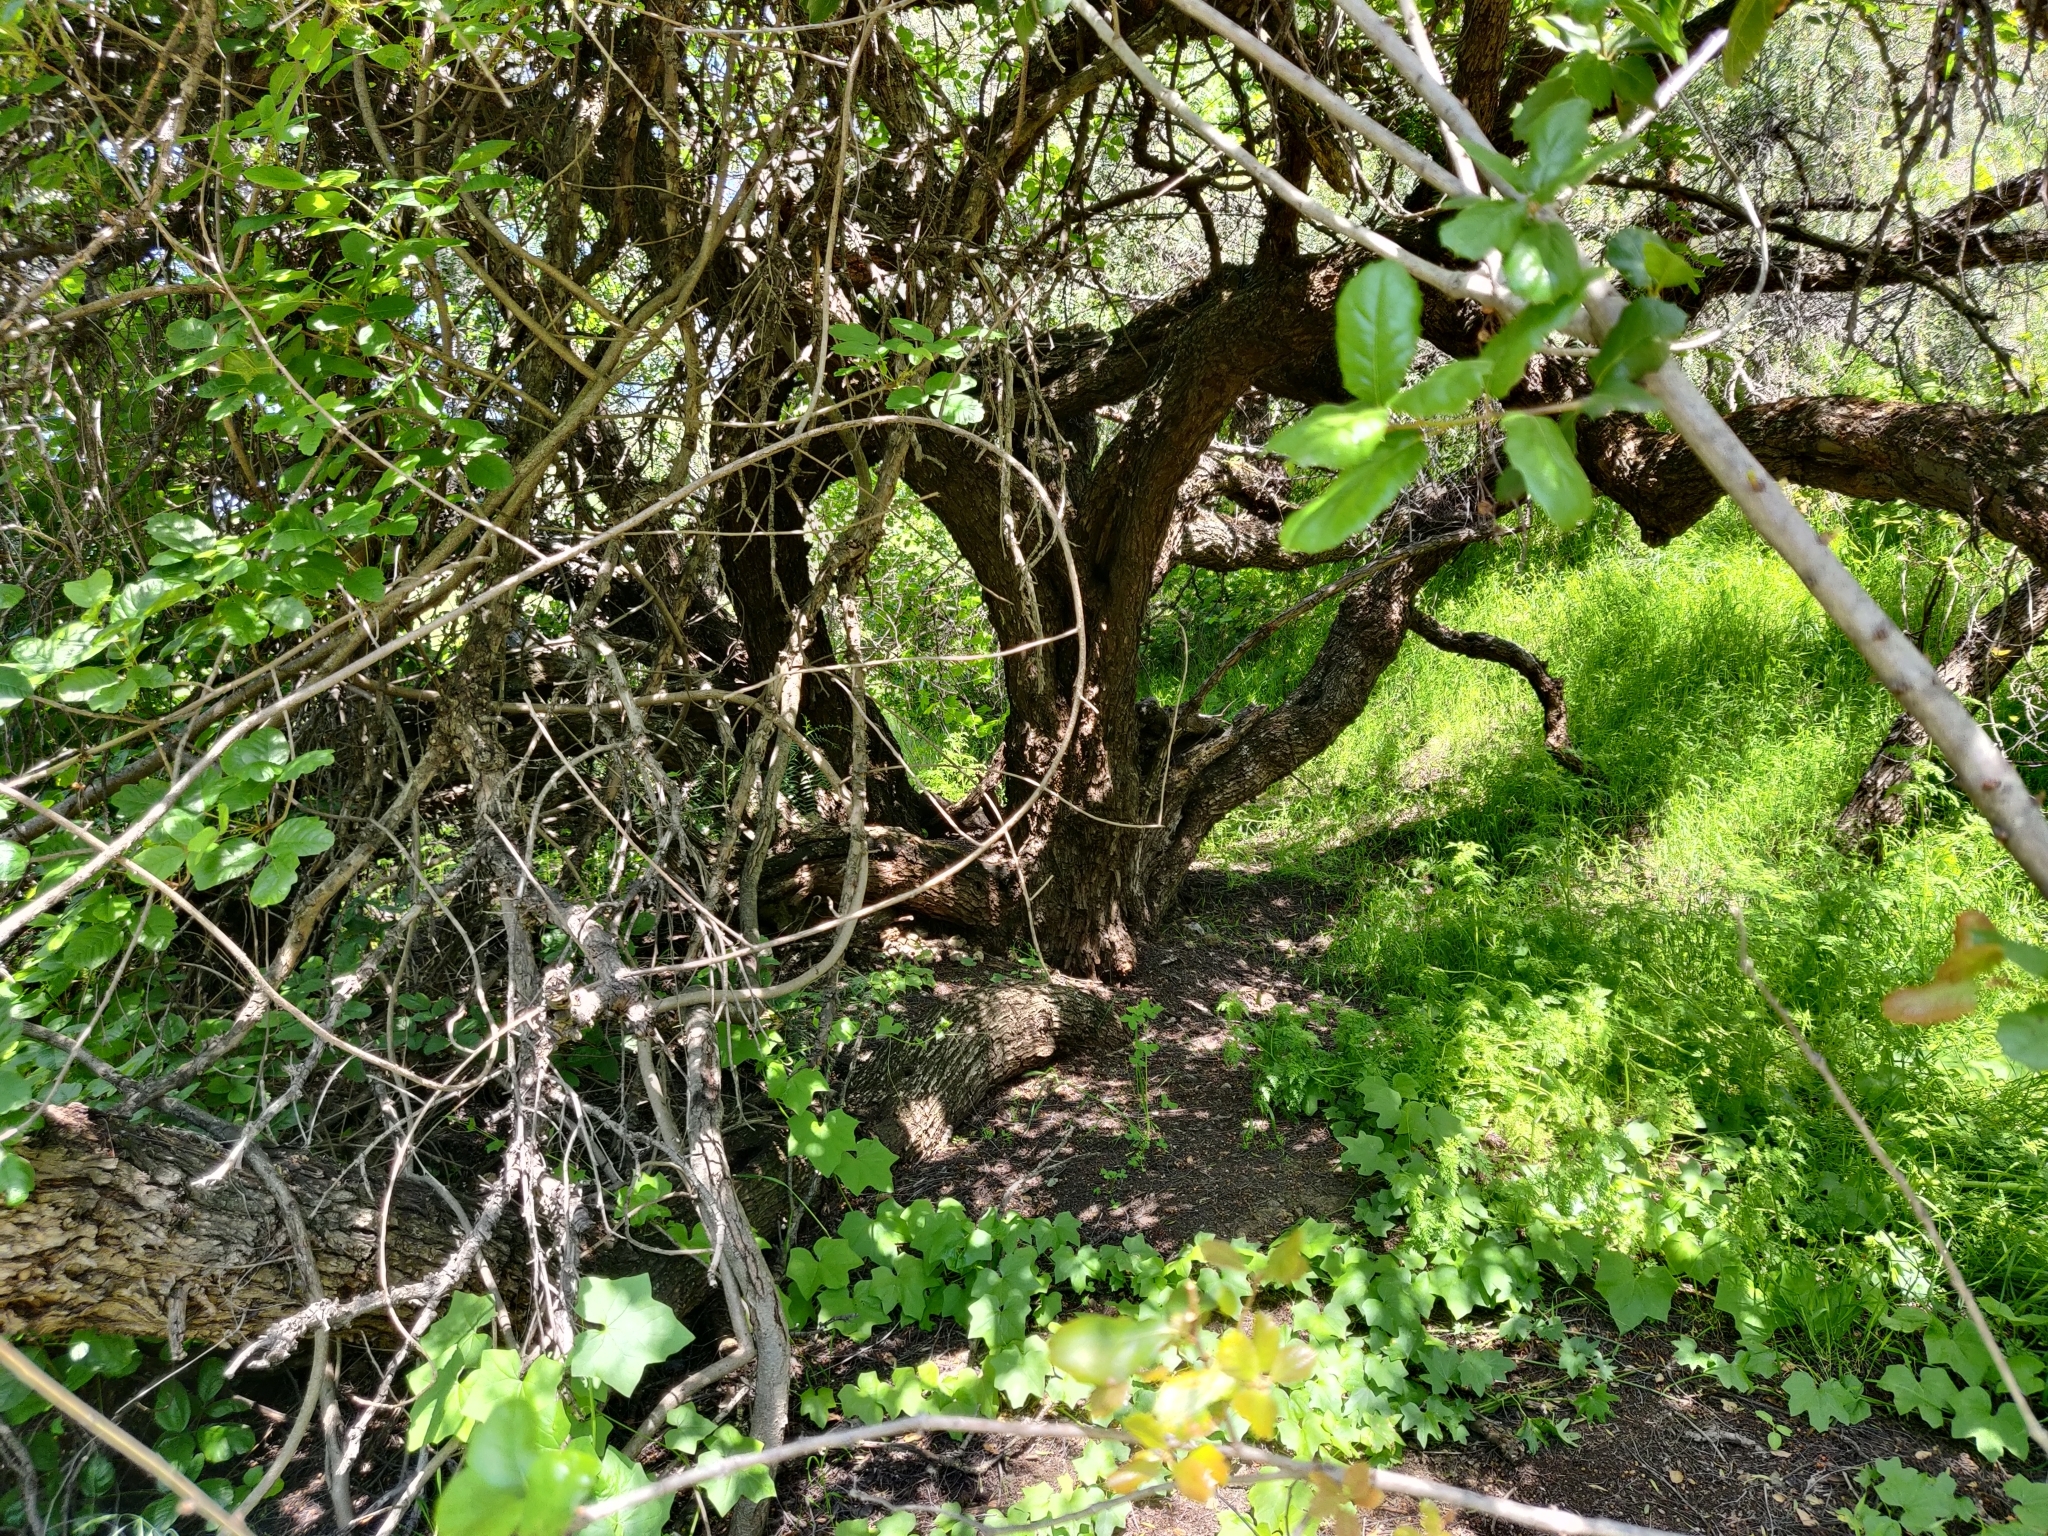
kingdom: Plantae
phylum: Tracheophyta
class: Magnoliopsida
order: Sapindales
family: Anacardiaceae
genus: Schinus
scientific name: Schinus molle
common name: Peruvian peppertree
